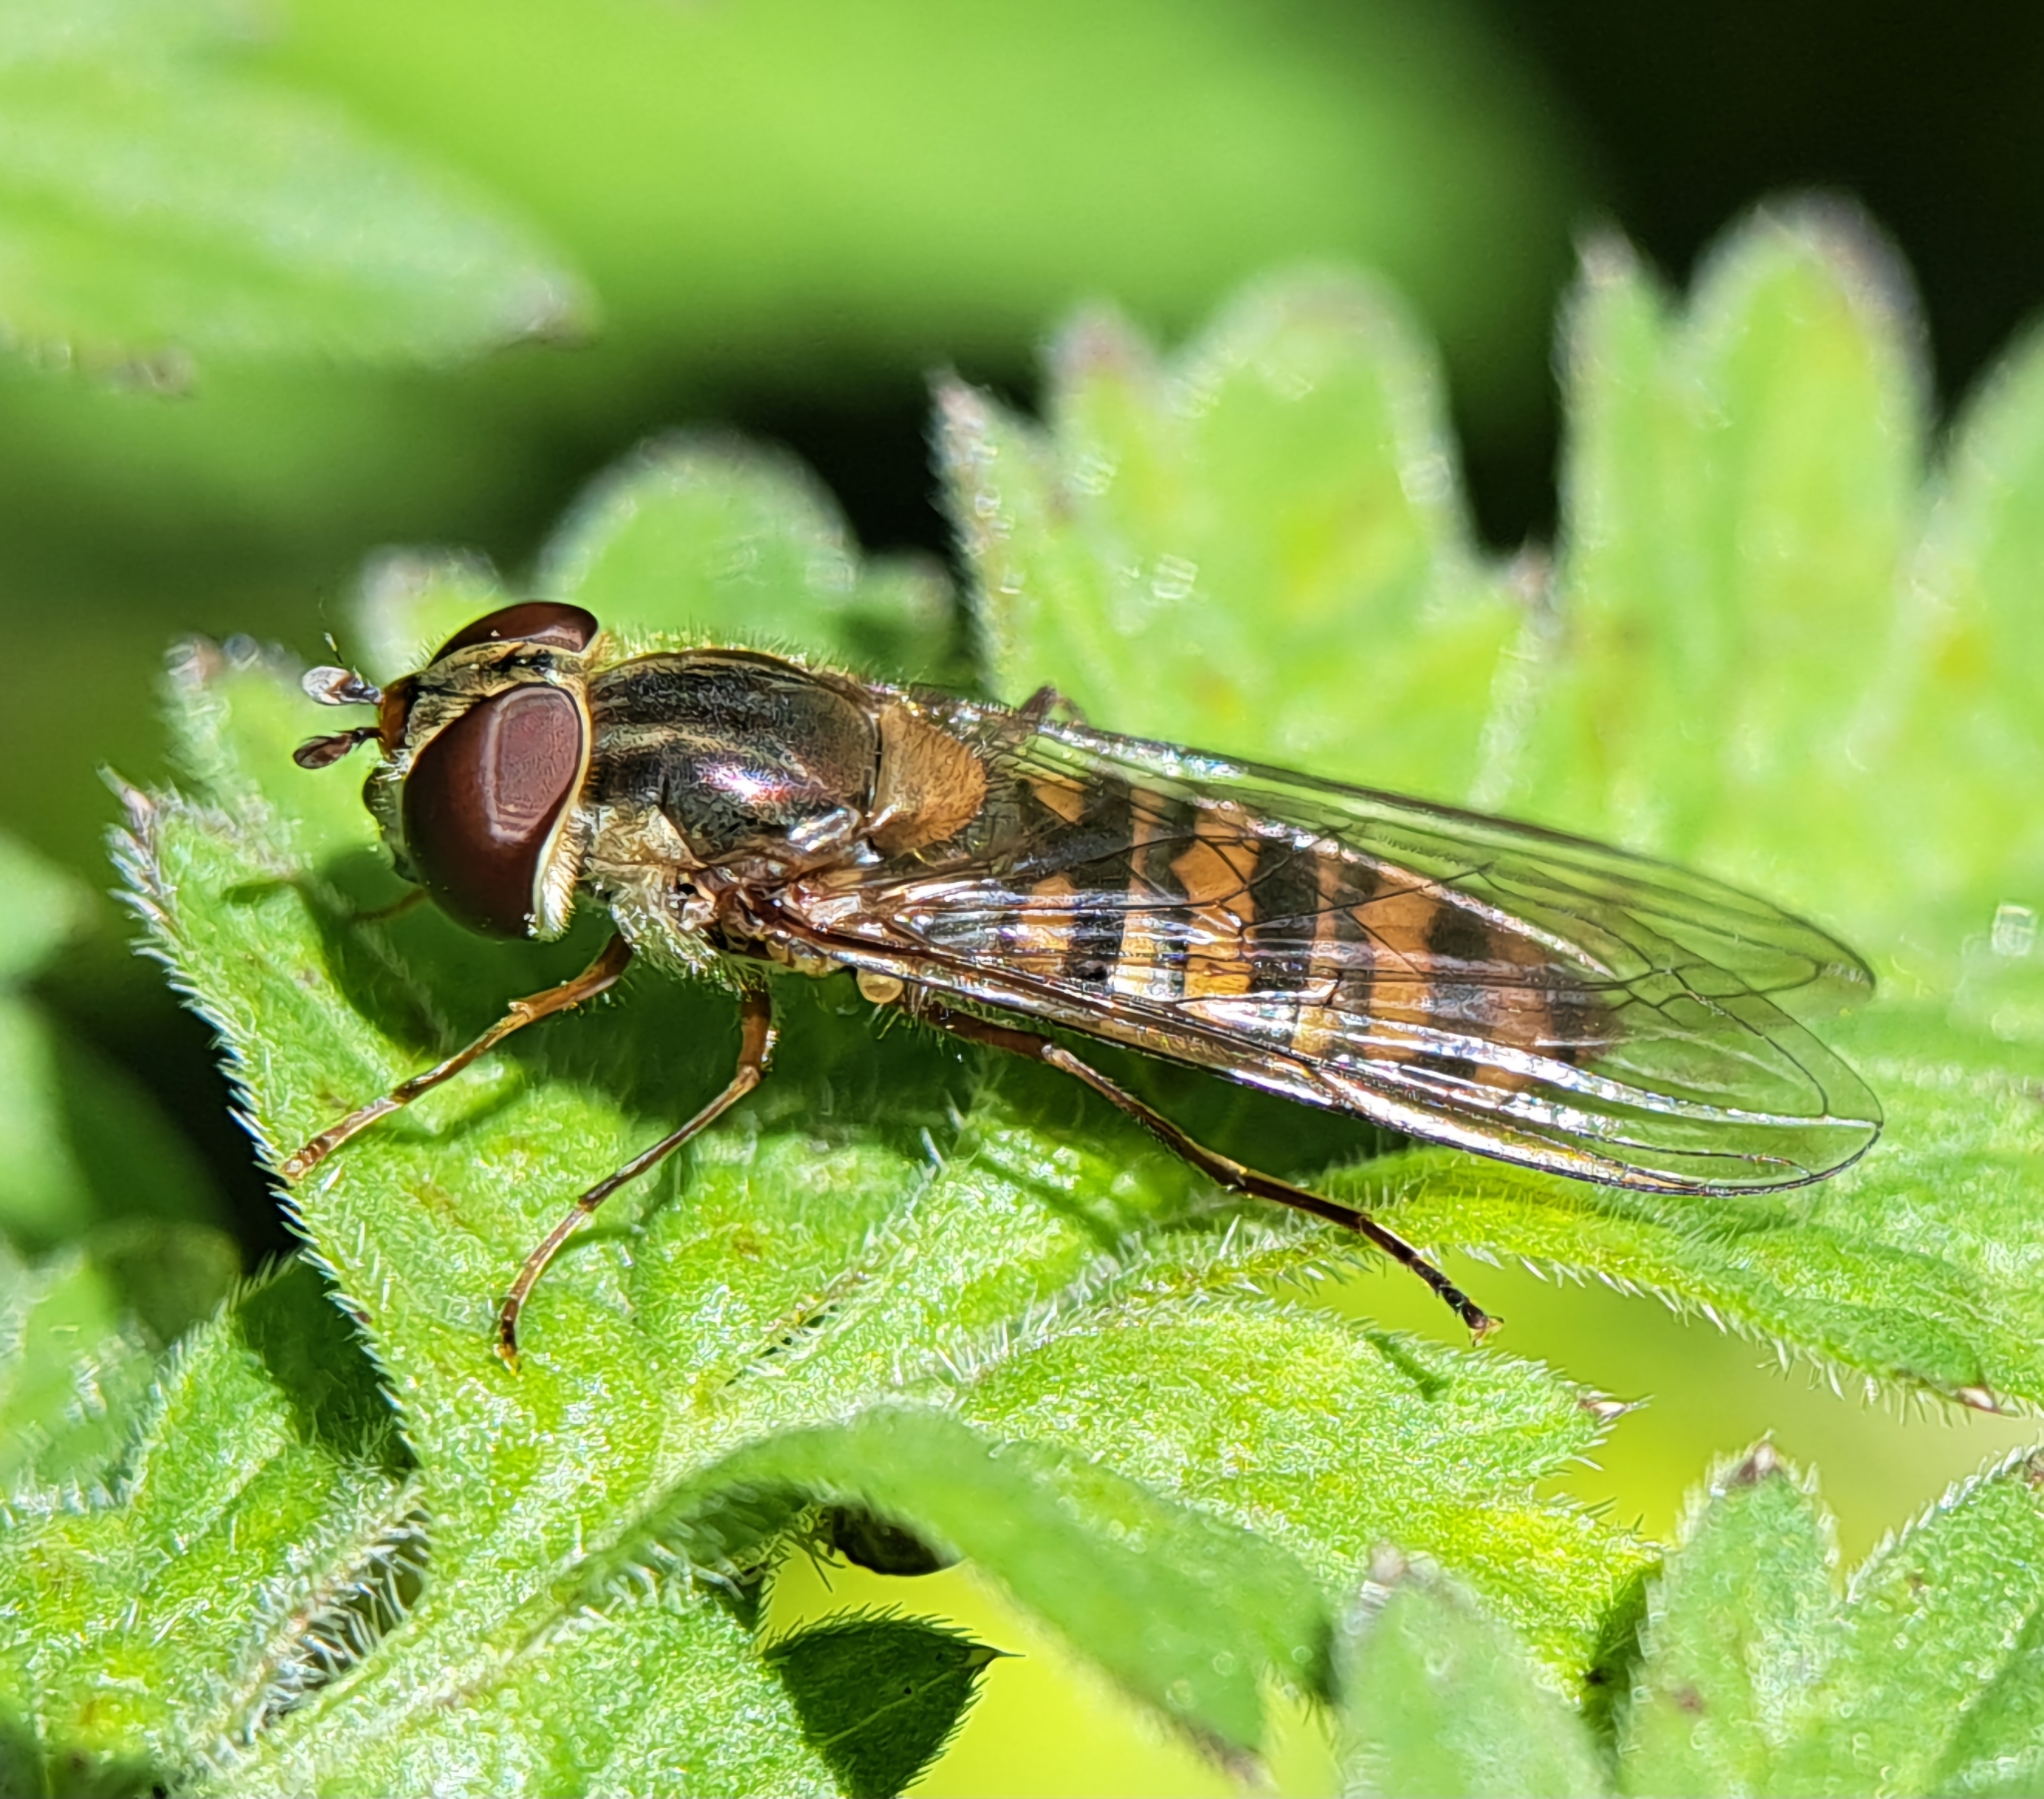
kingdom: Animalia
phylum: Arthropoda
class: Insecta
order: Diptera
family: Syrphidae
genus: Episyrphus
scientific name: Episyrphus balteatus
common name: Marmalade hoverfly
